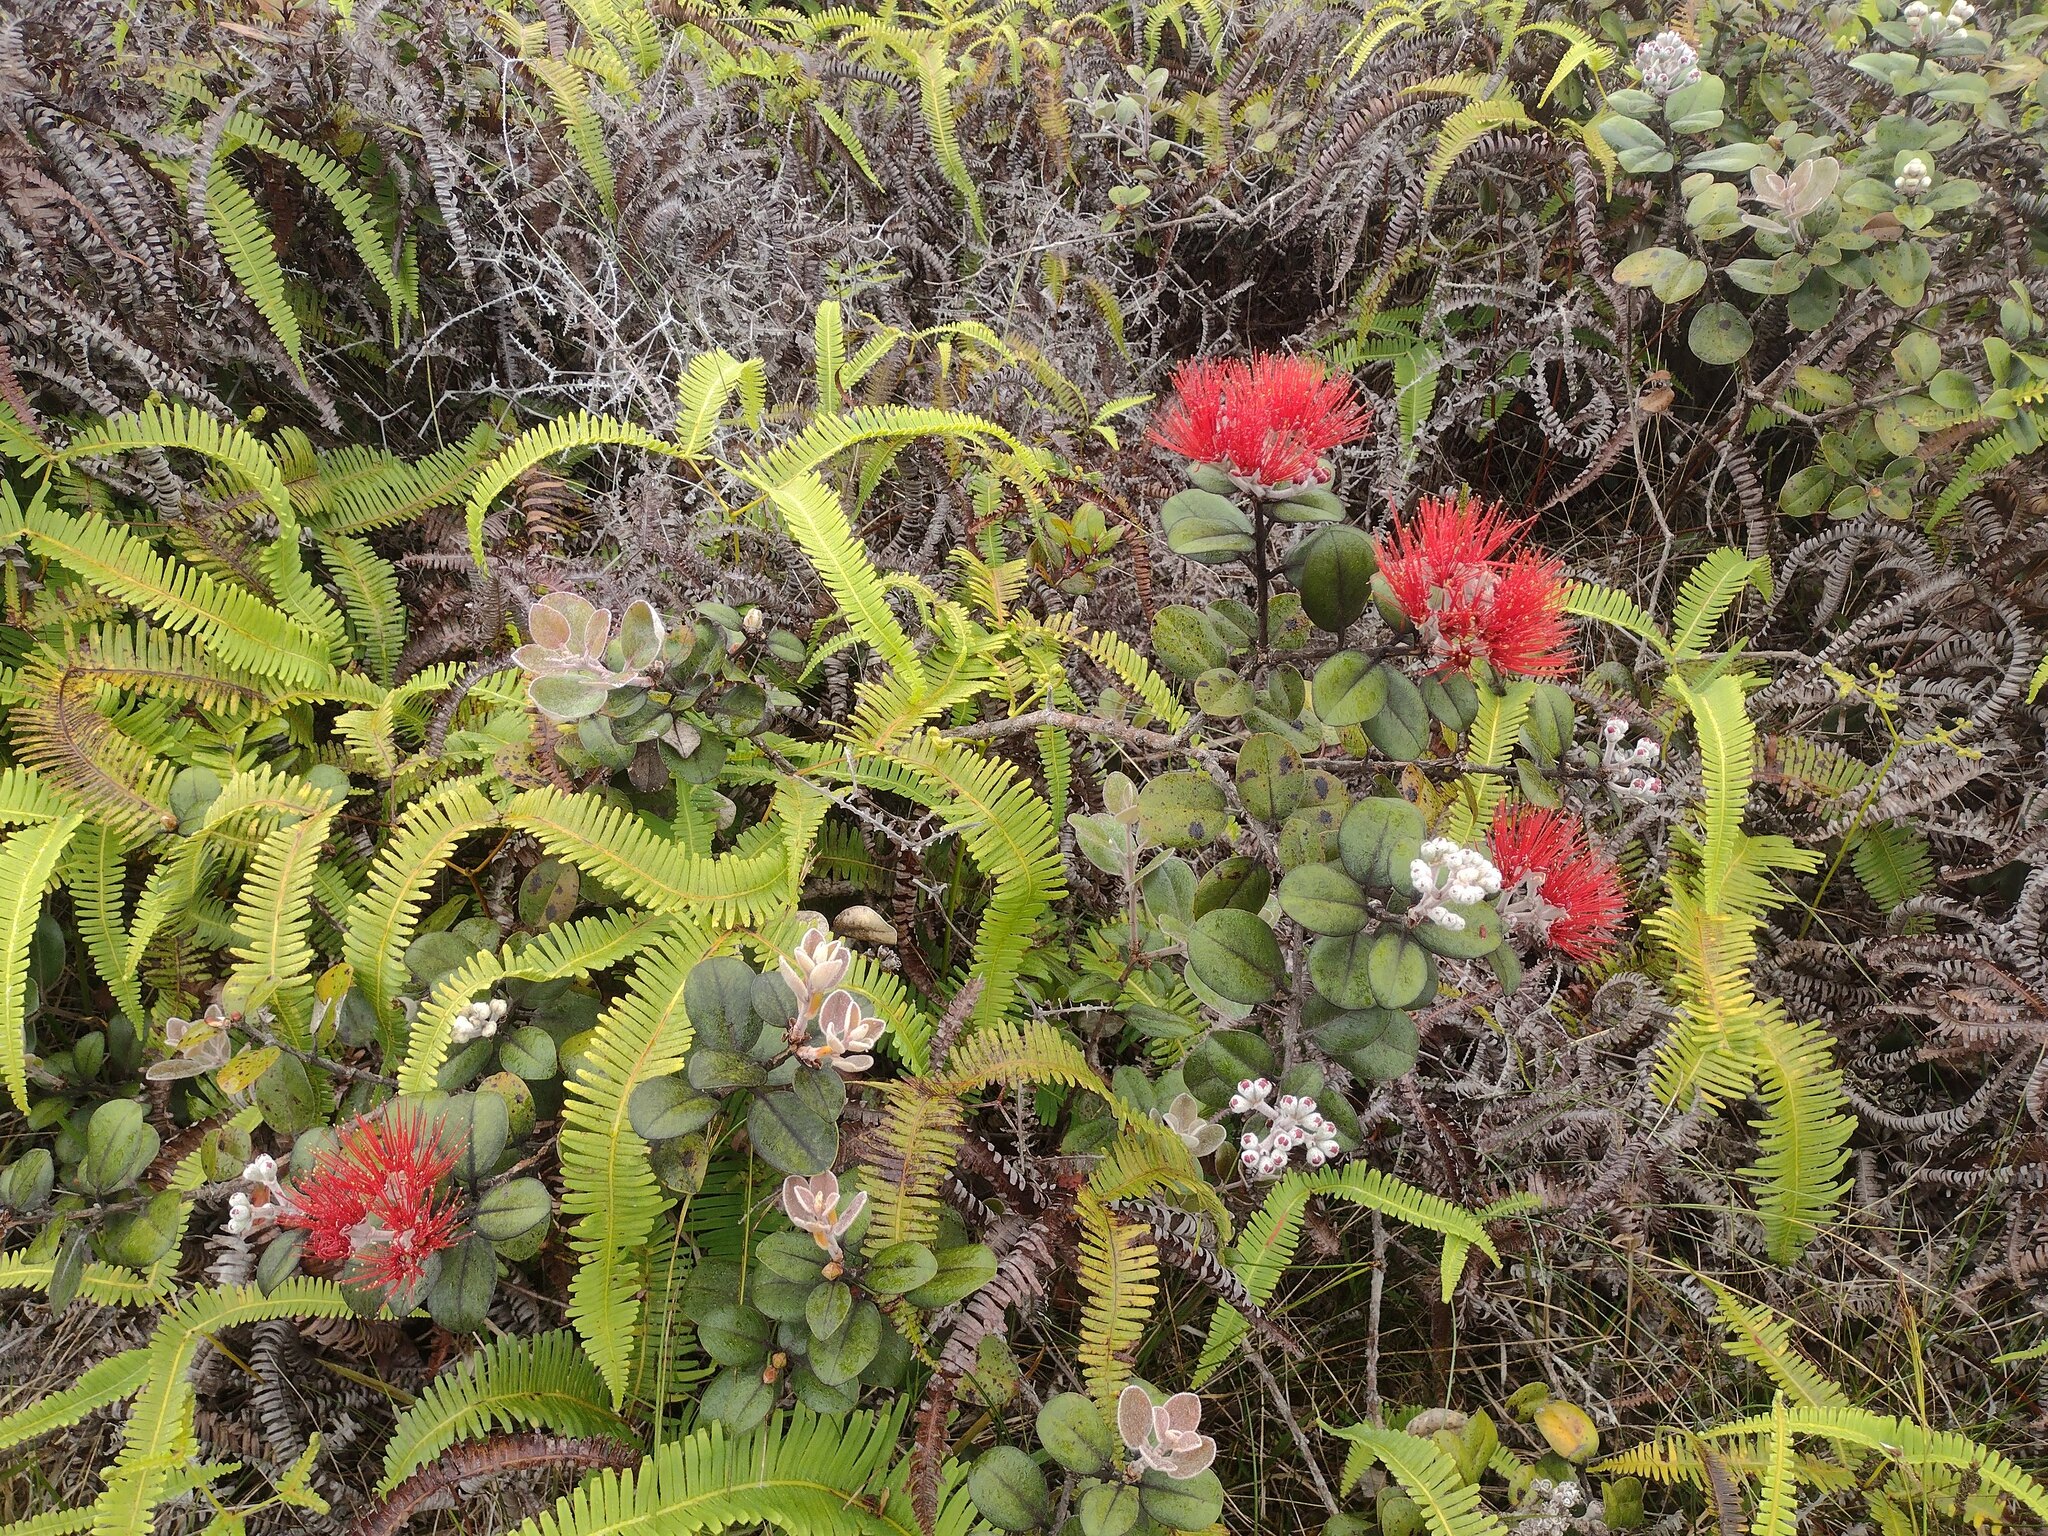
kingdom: Plantae
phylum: Tracheophyta
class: Magnoliopsida
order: Myrtales
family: Myrtaceae
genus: Metrosideros
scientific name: Metrosideros polymorpha
